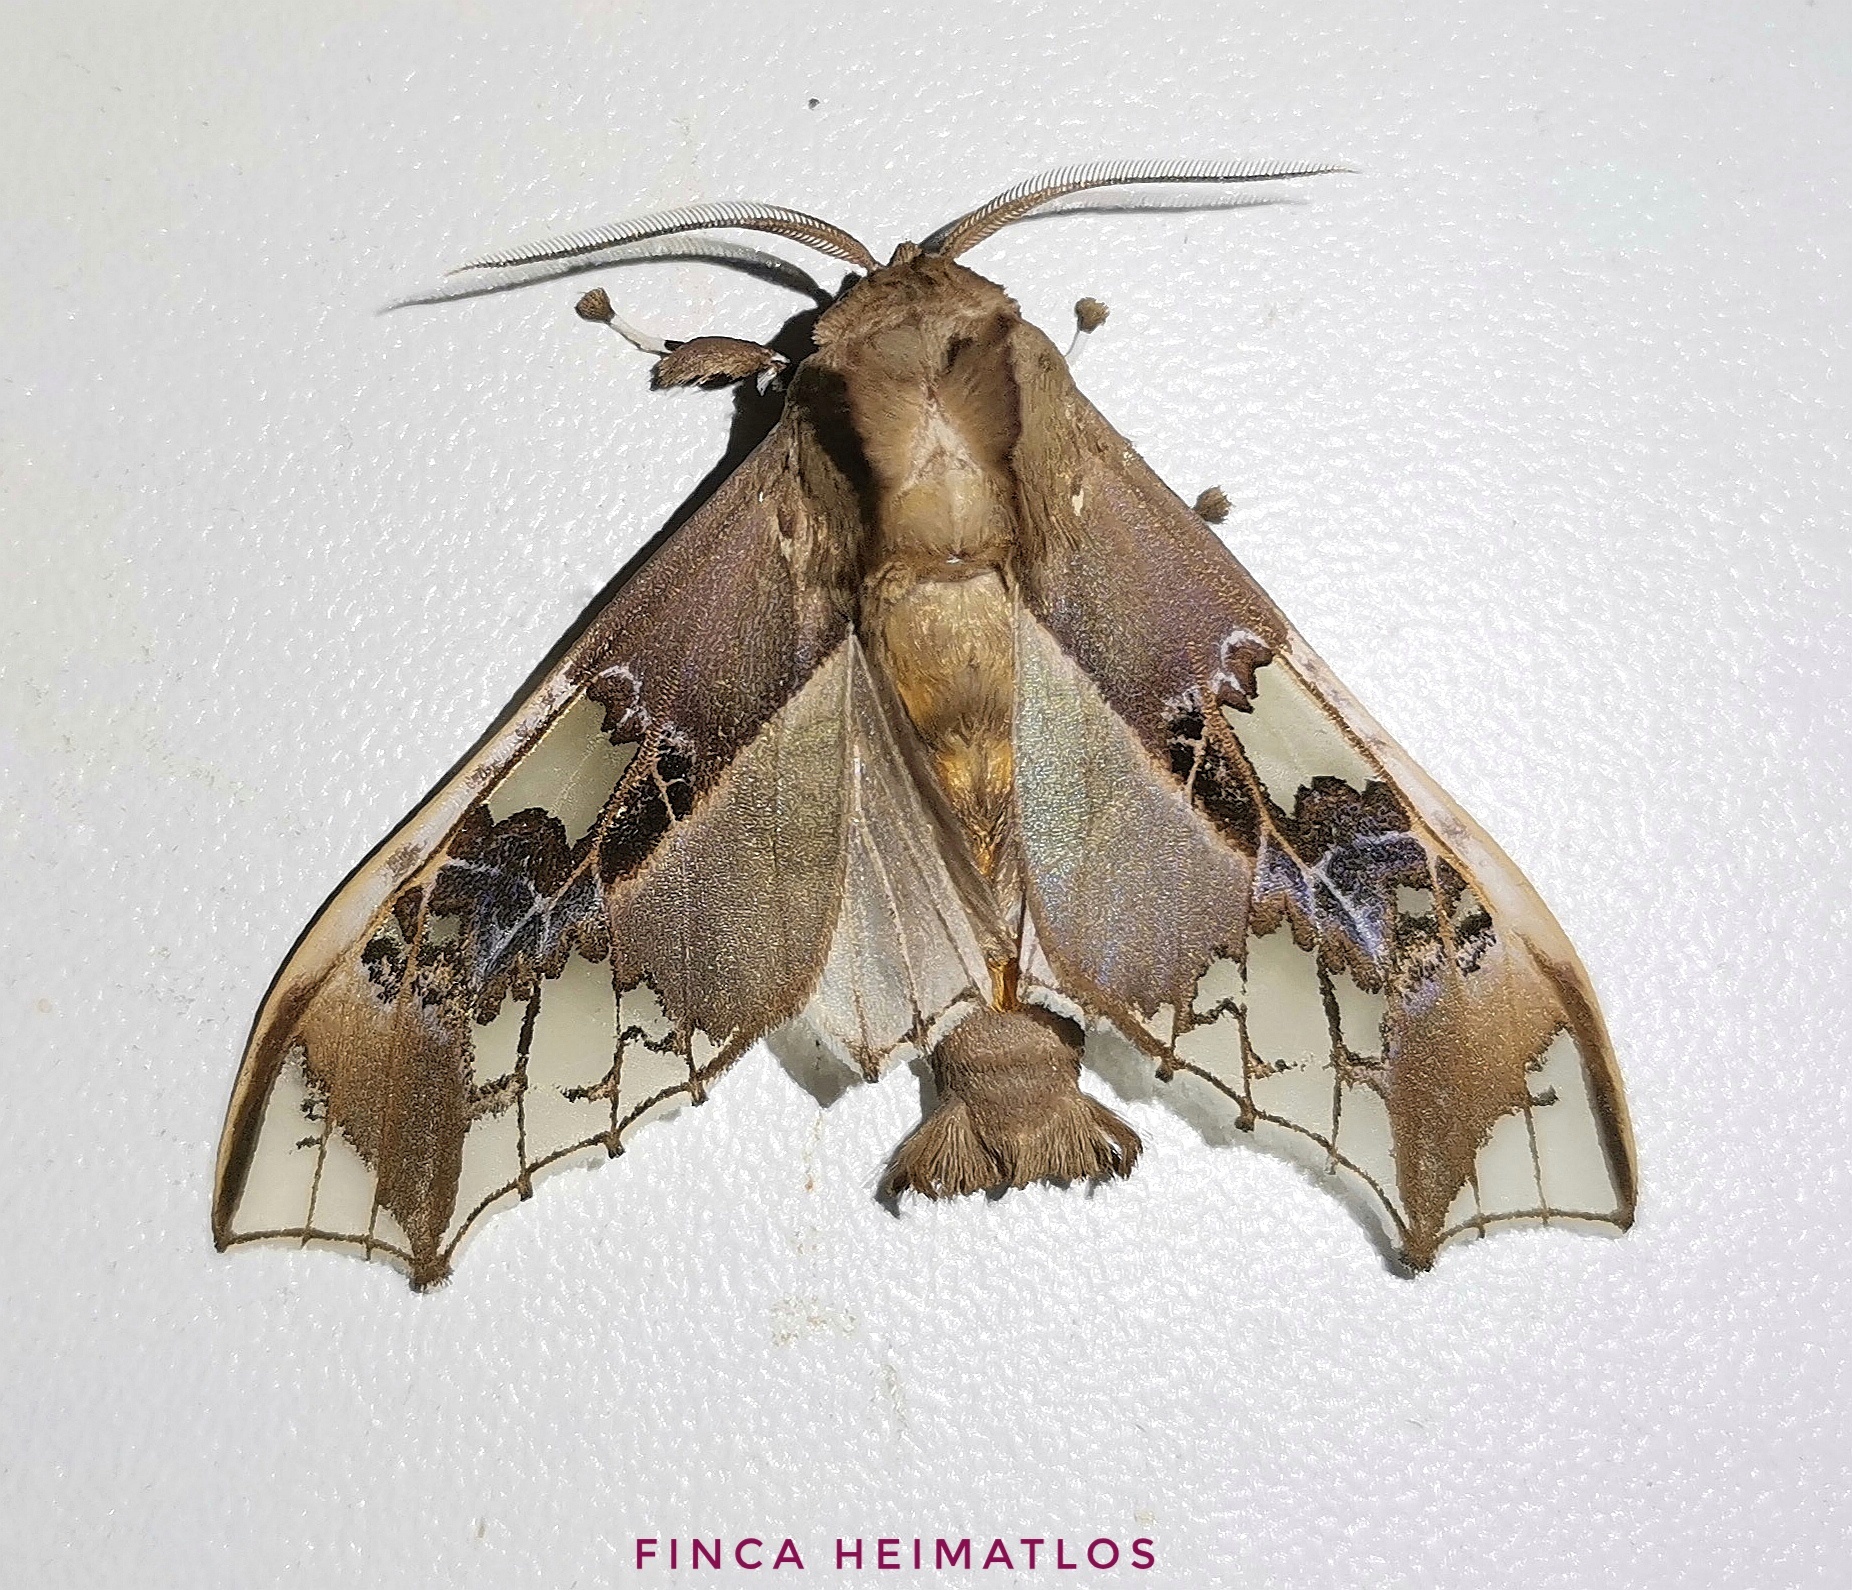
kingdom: Animalia
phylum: Arthropoda
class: Insecta
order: Lepidoptera
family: Erebidae
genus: Parathyris
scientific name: Parathyris cedonulli
